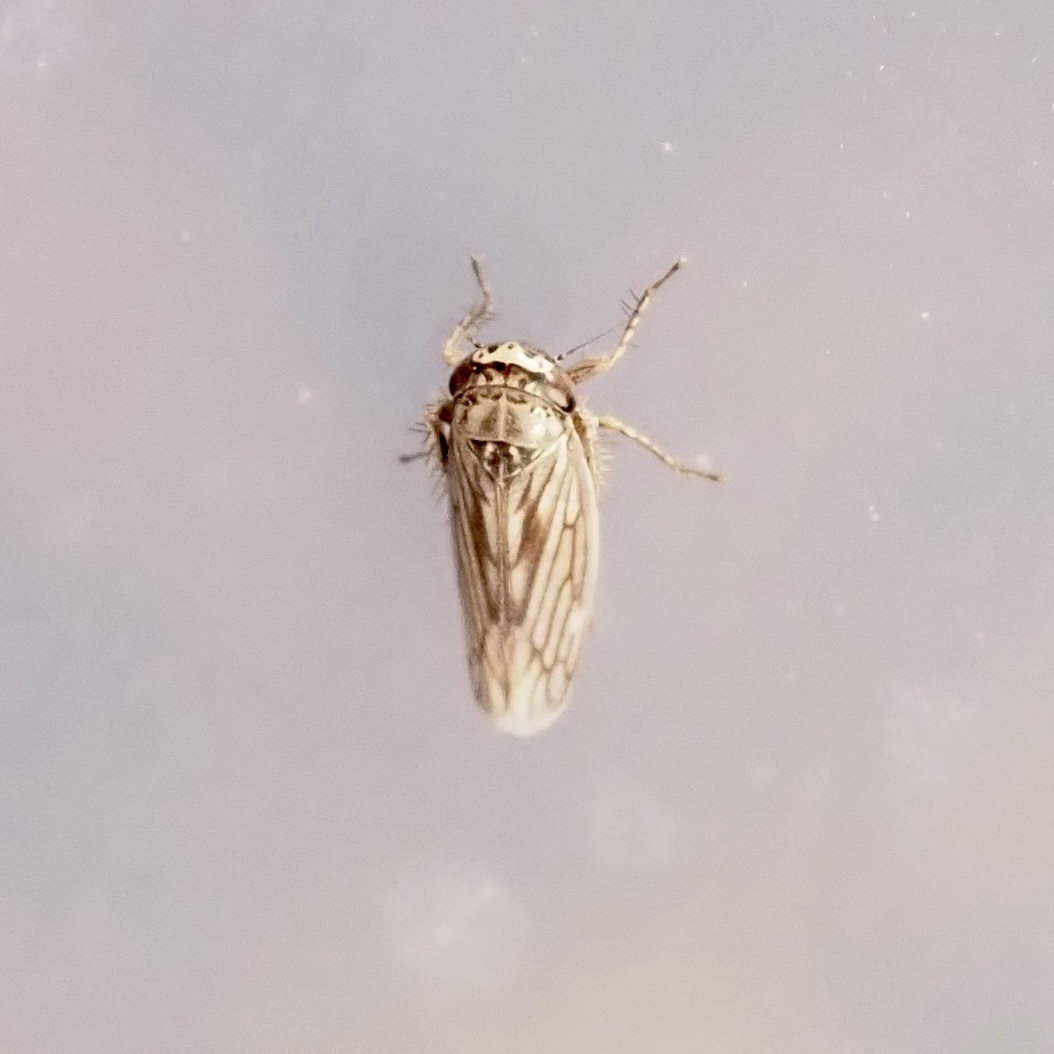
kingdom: Animalia
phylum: Arthropoda
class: Insecta
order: Hemiptera
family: Cicadellidae
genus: Exitianus
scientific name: Exitianus exitiosus
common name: Gray lawn leafhopper
